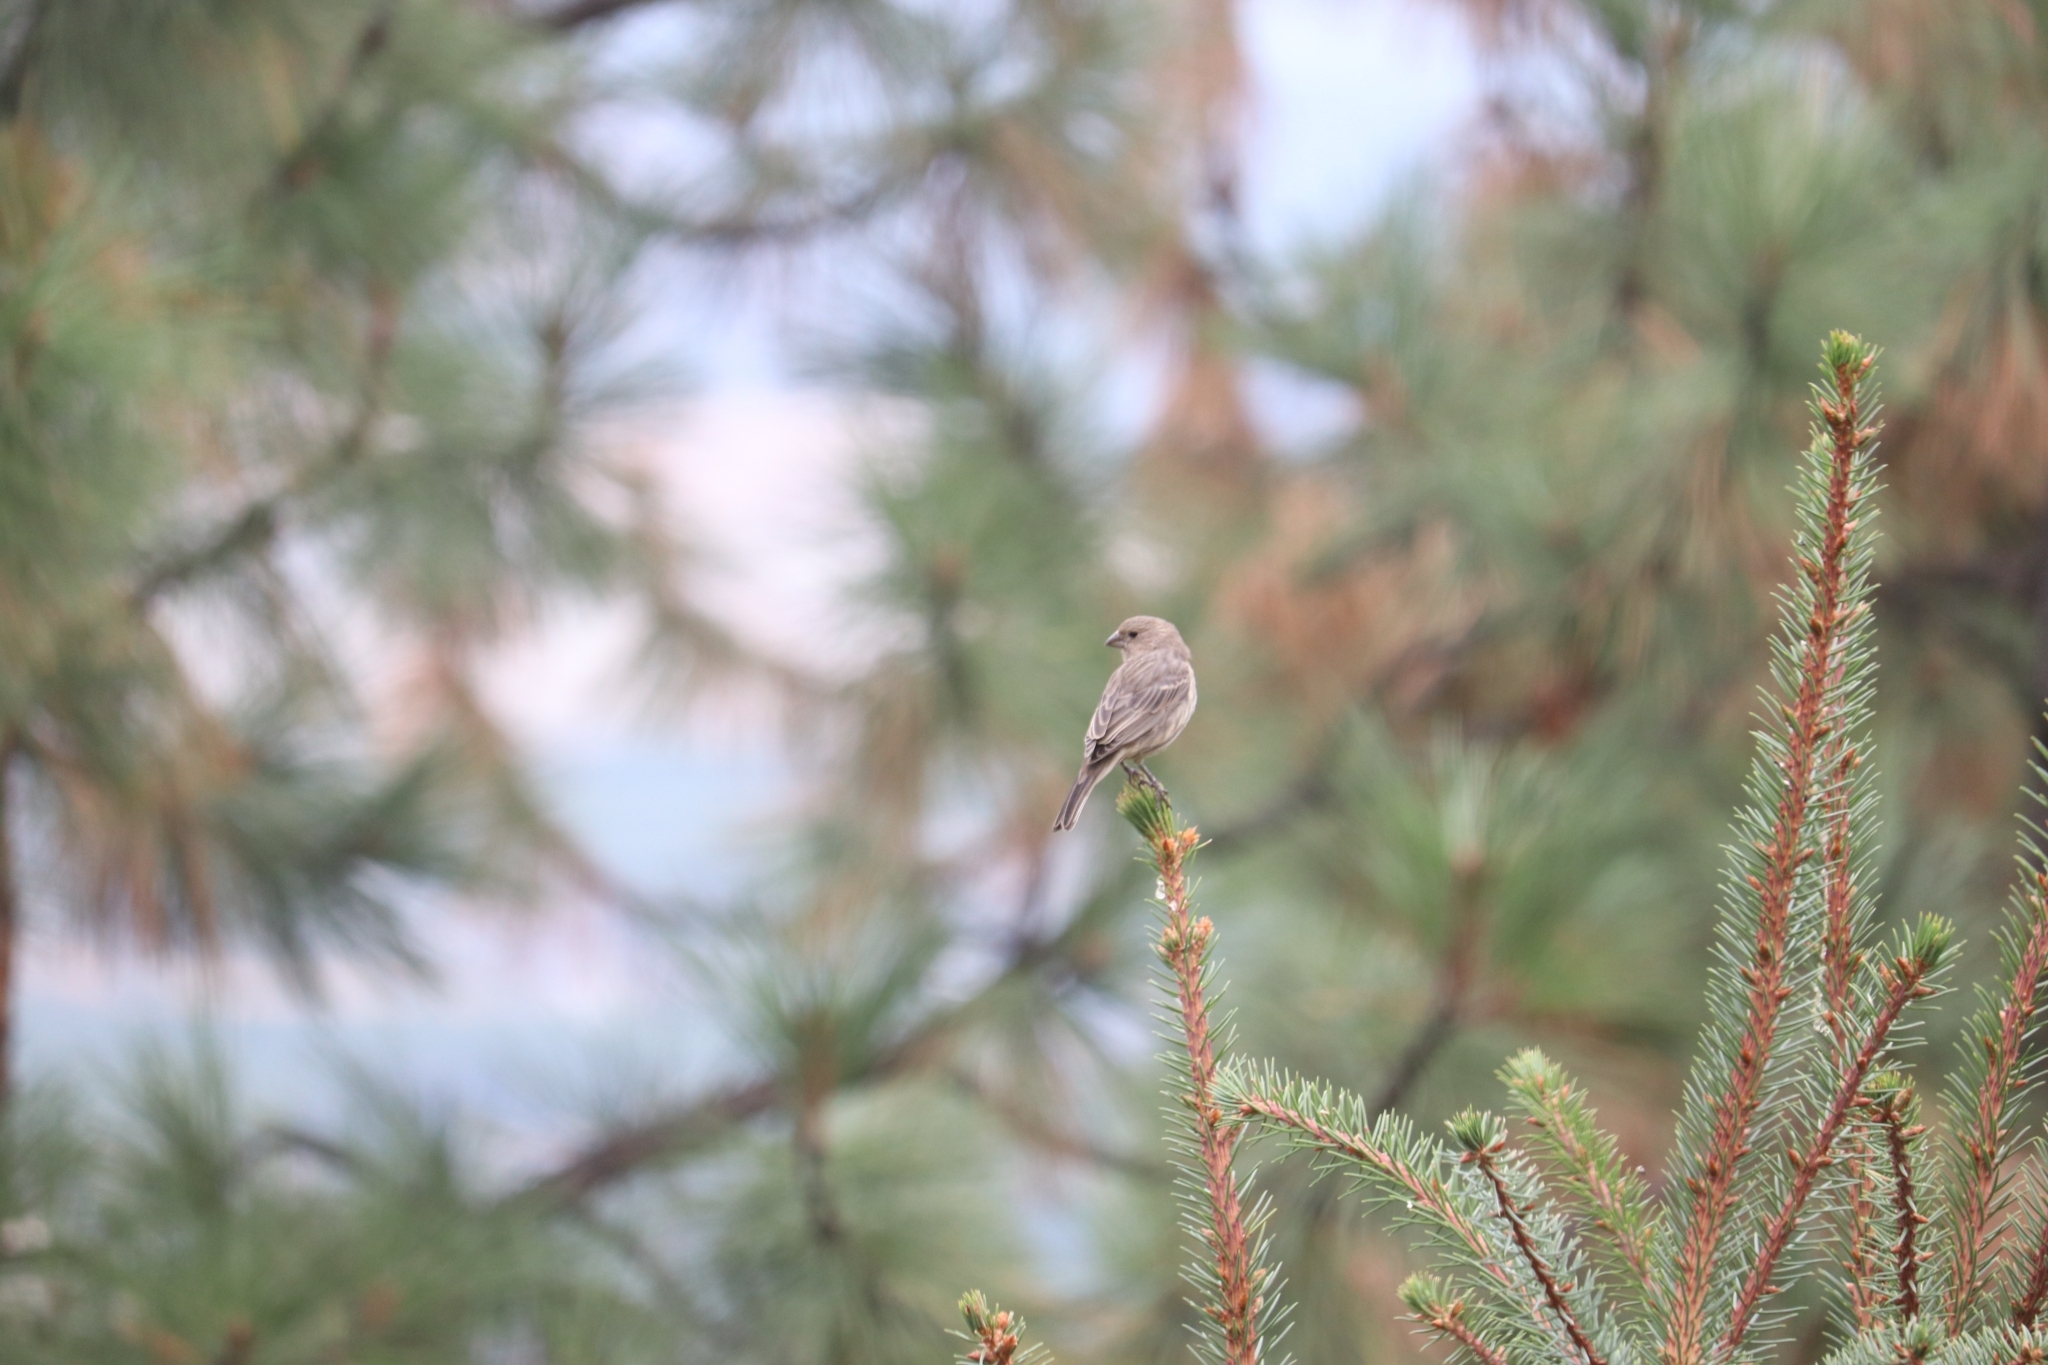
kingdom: Animalia
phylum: Chordata
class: Aves
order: Passeriformes
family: Fringillidae
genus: Haemorhous
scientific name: Haemorhous mexicanus
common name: House finch
